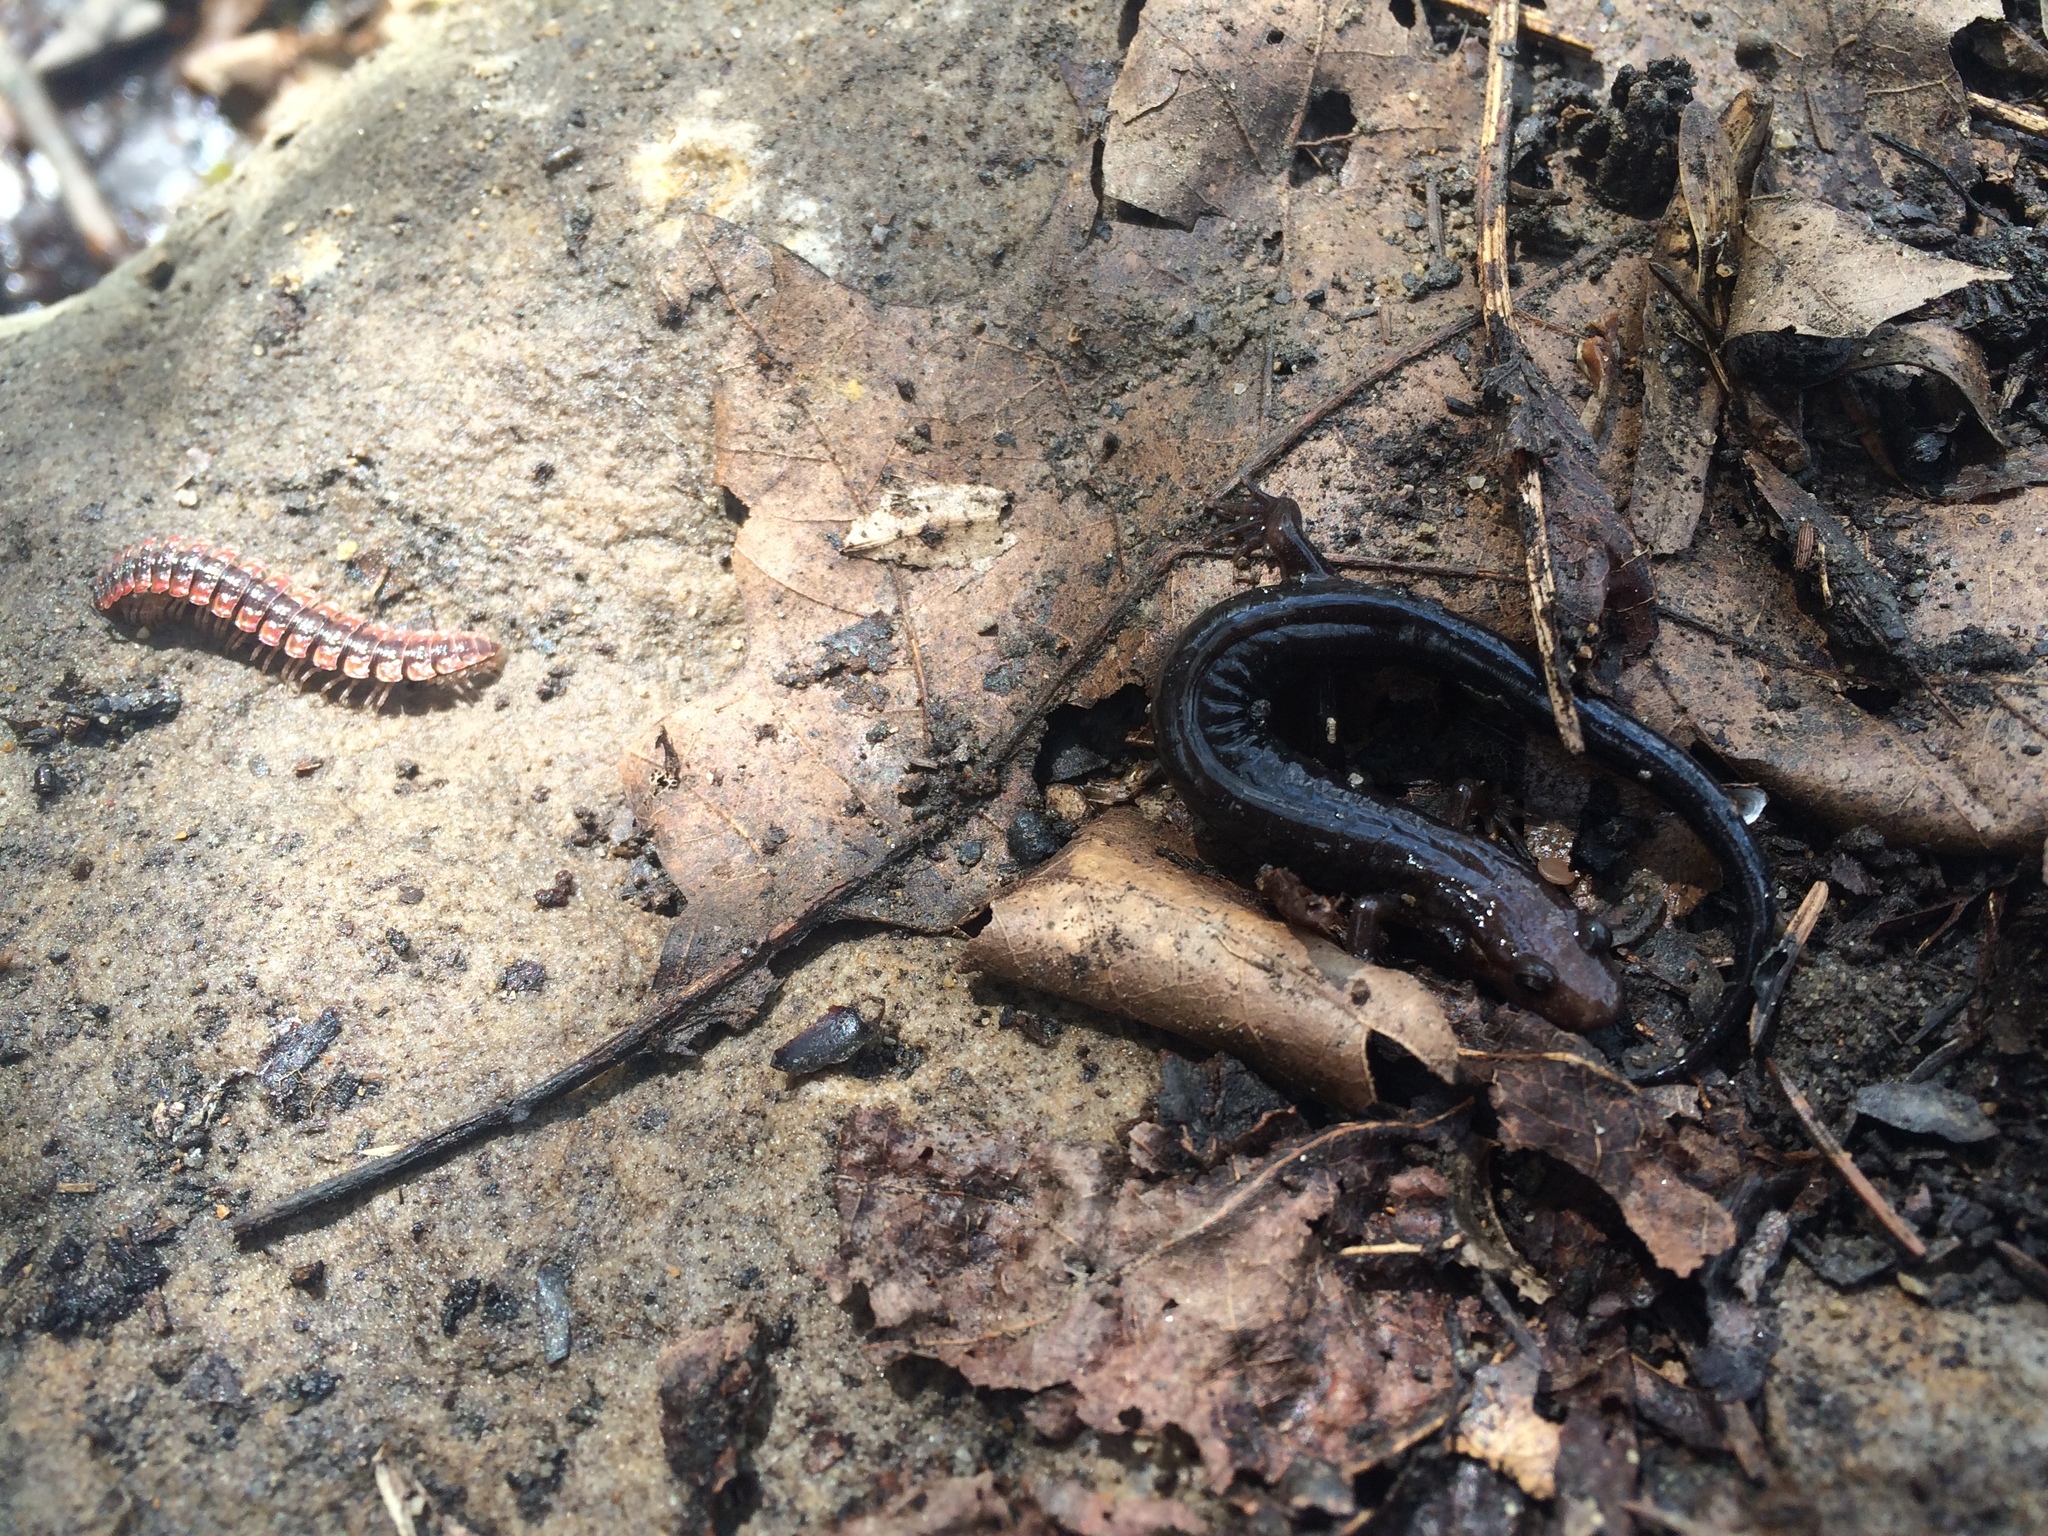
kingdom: Animalia
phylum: Chordata
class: Amphibia
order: Caudata
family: Plethodontidae
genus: Desmognathus
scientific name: Desmognathus ochrophaeus
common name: Allegheny mountain dusky salamander
